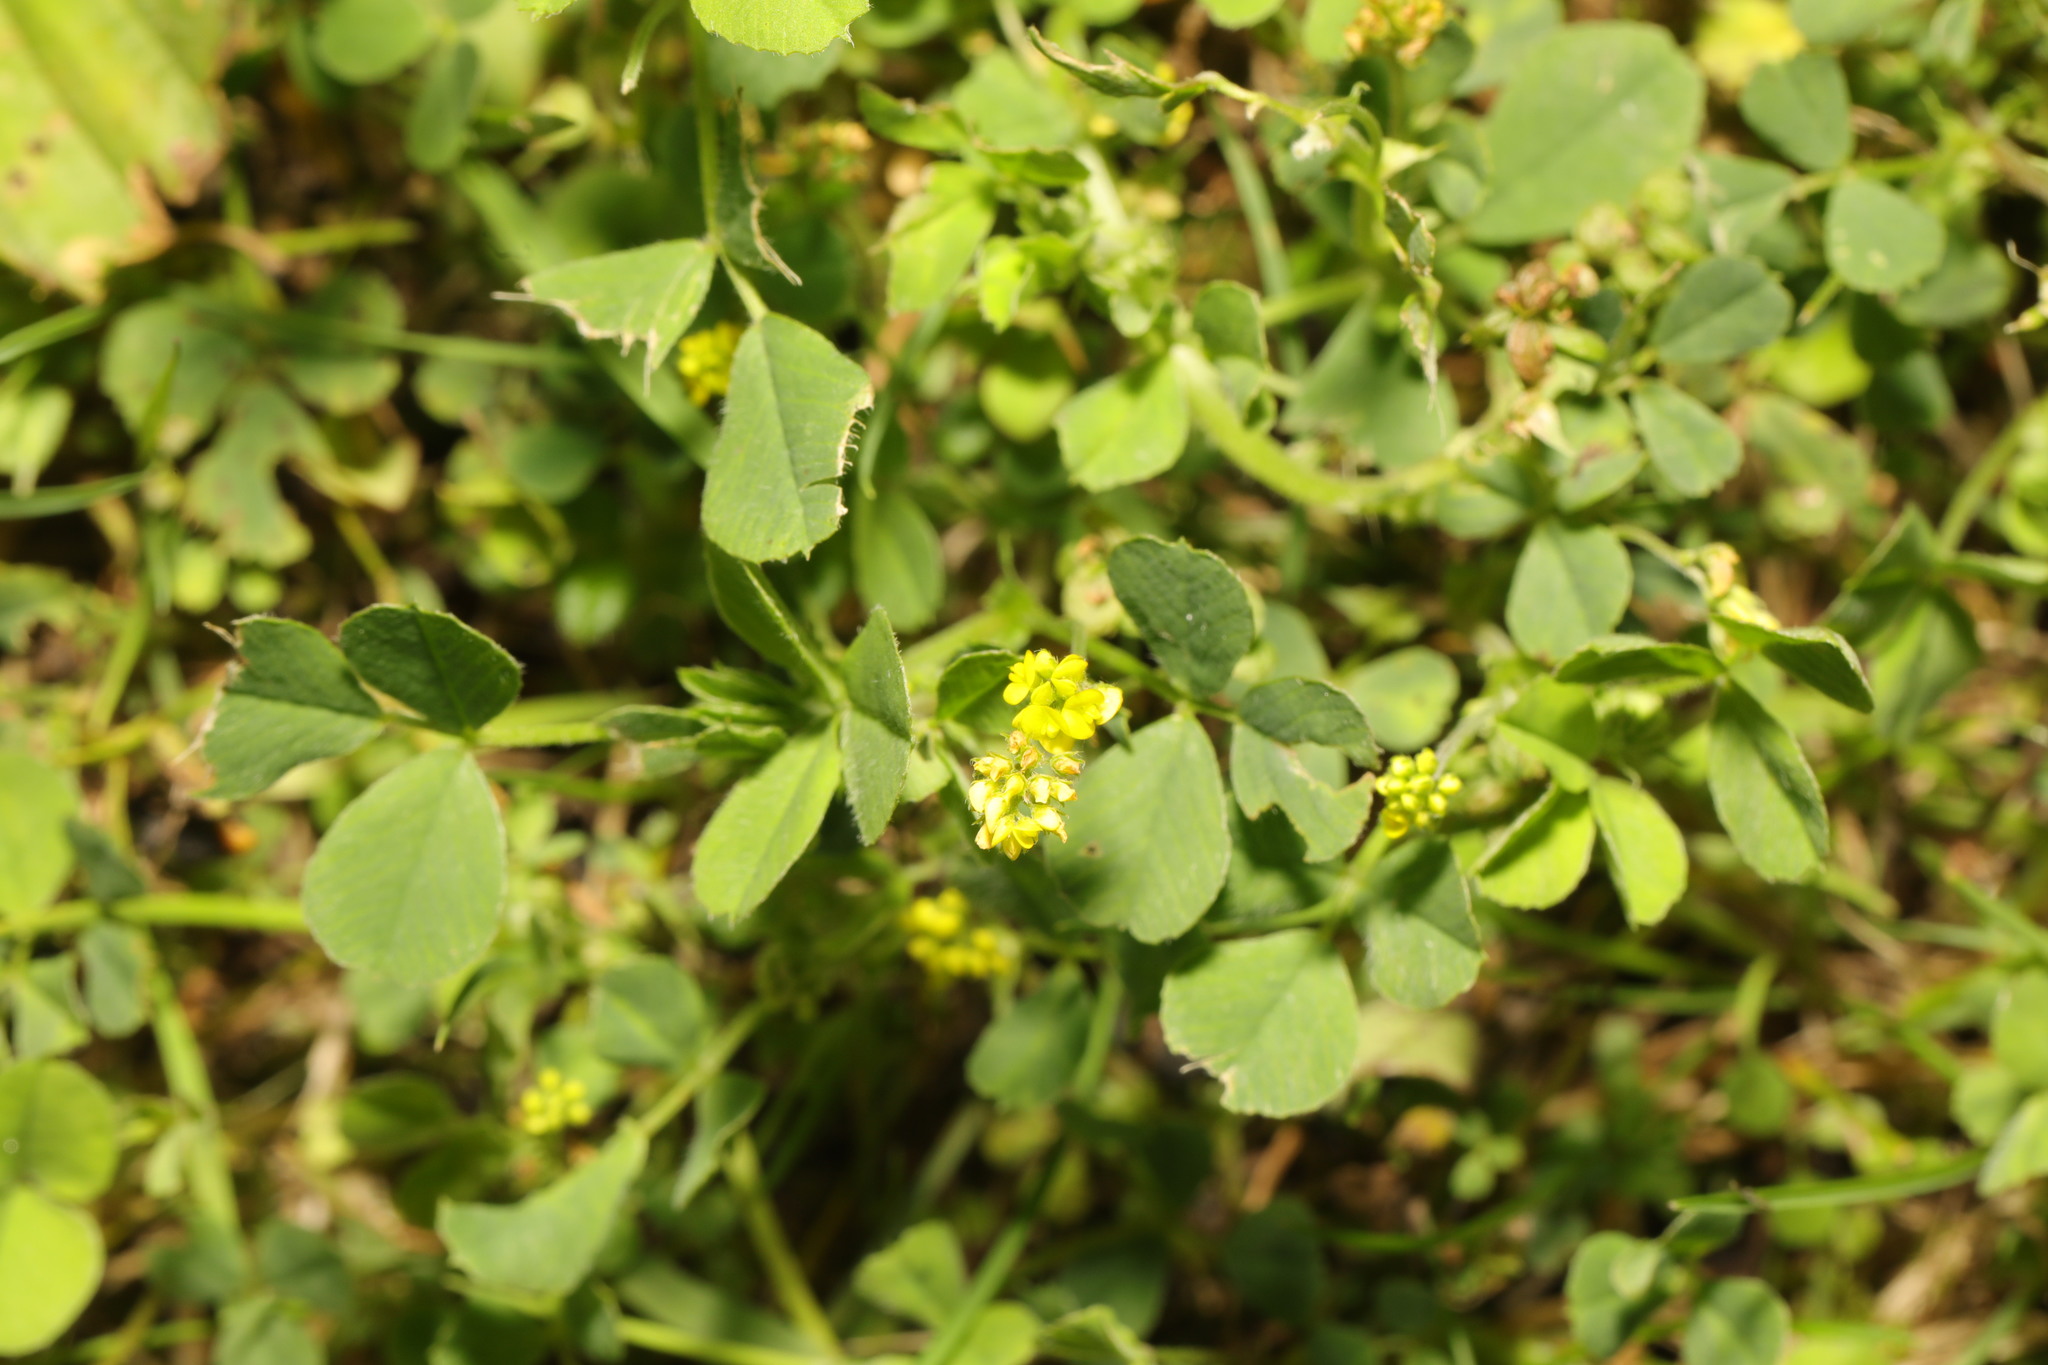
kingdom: Plantae
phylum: Tracheophyta
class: Magnoliopsida
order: Fabales
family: Fabaceae
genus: Medicago
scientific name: Medicago lupulina
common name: Black medick
